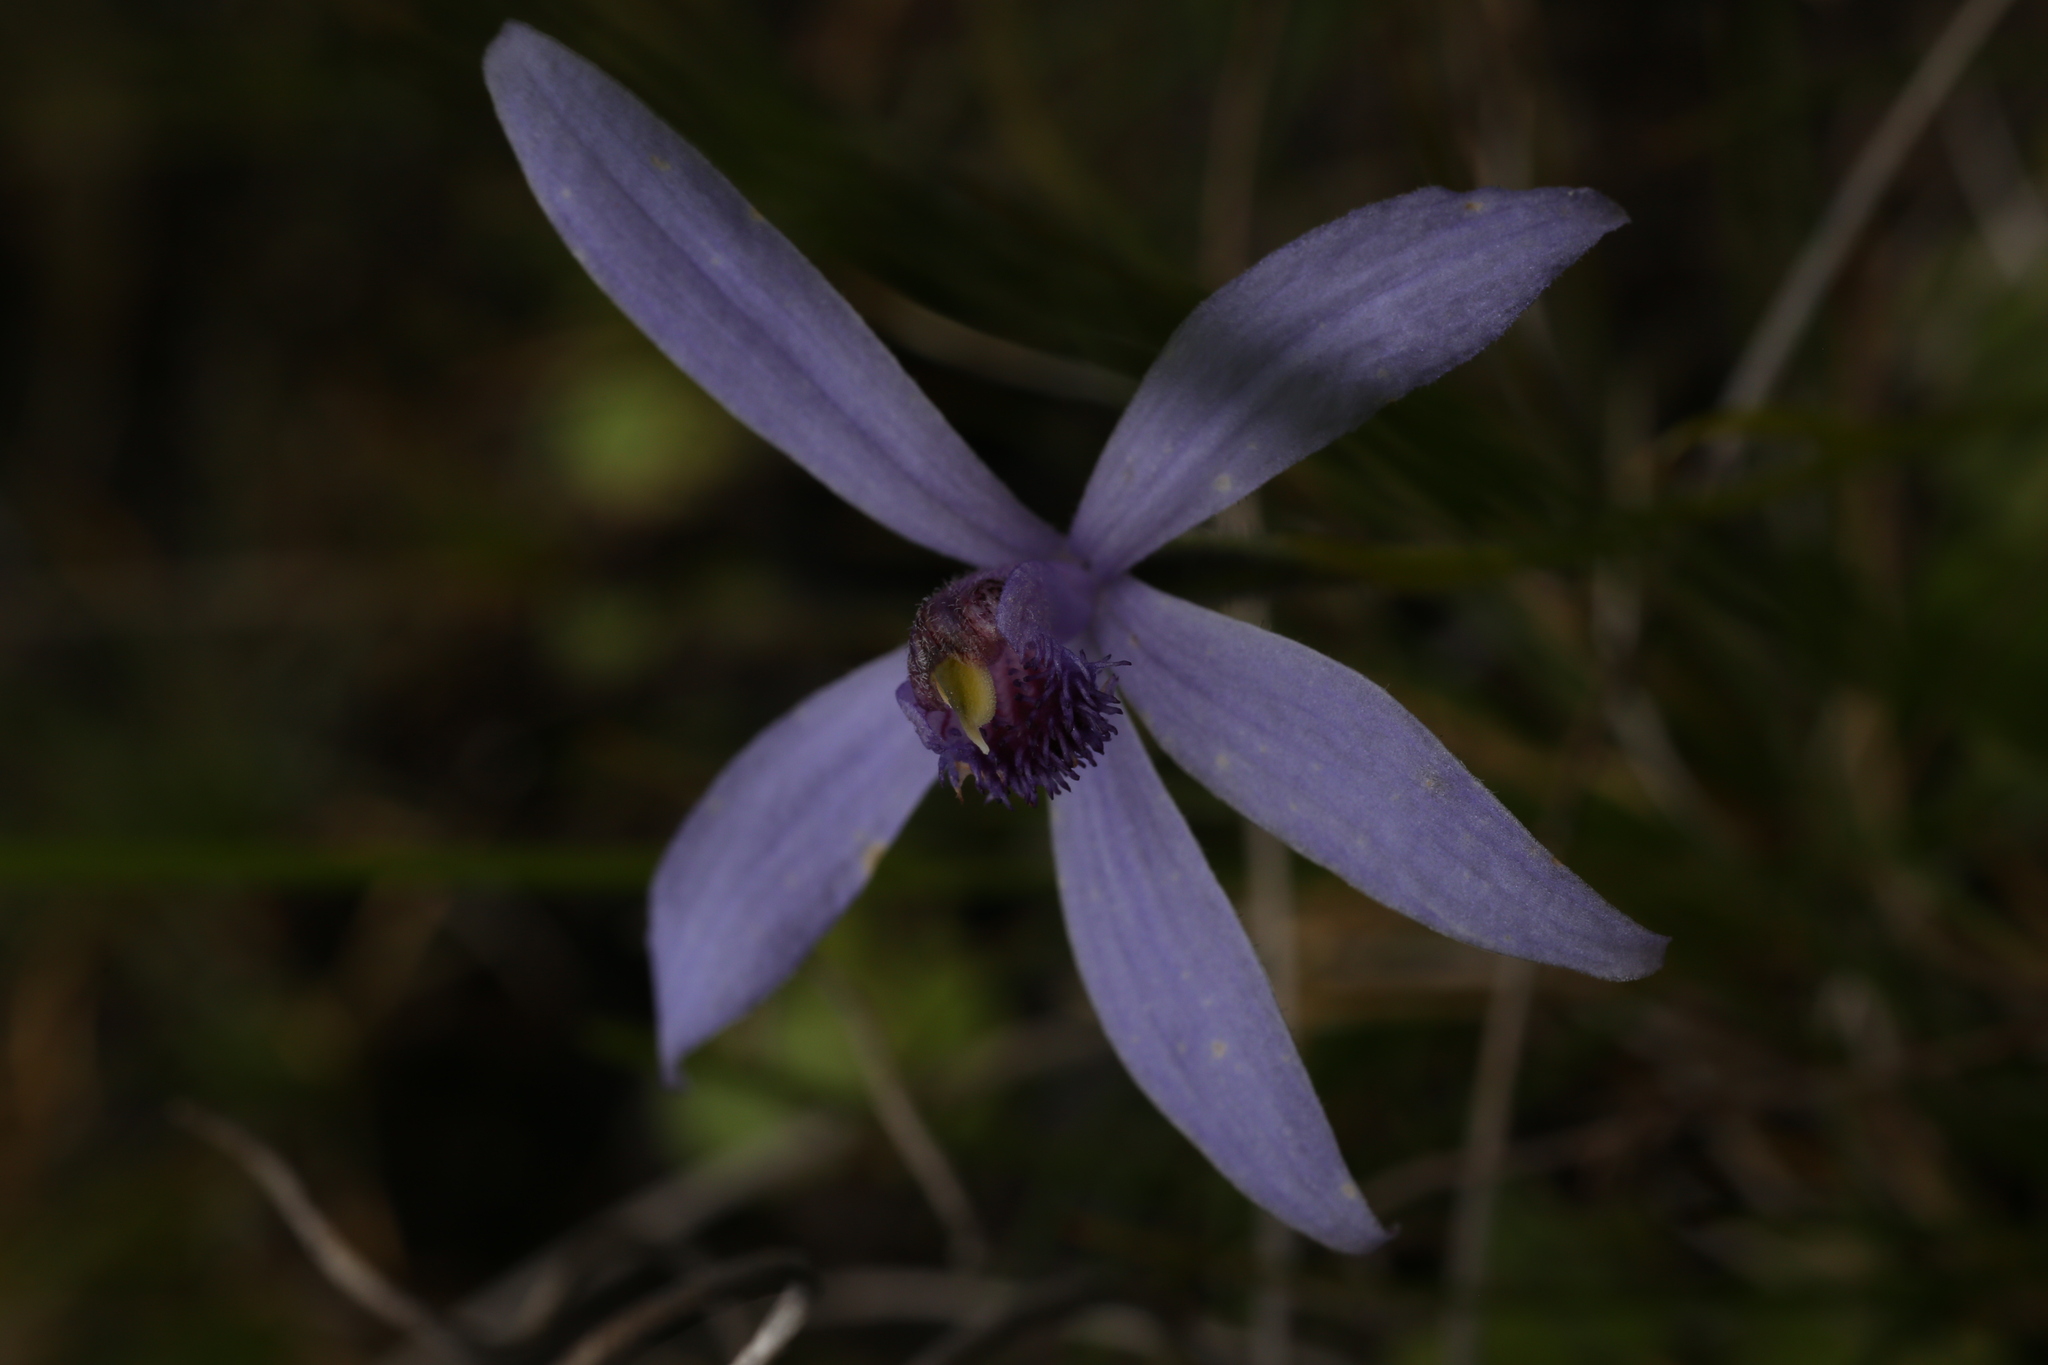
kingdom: Plantae
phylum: Tracheophyta
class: Liliopsida
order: Asparagales
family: Orchidaceae
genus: Pheladenia
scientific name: Pheladenia deformis
